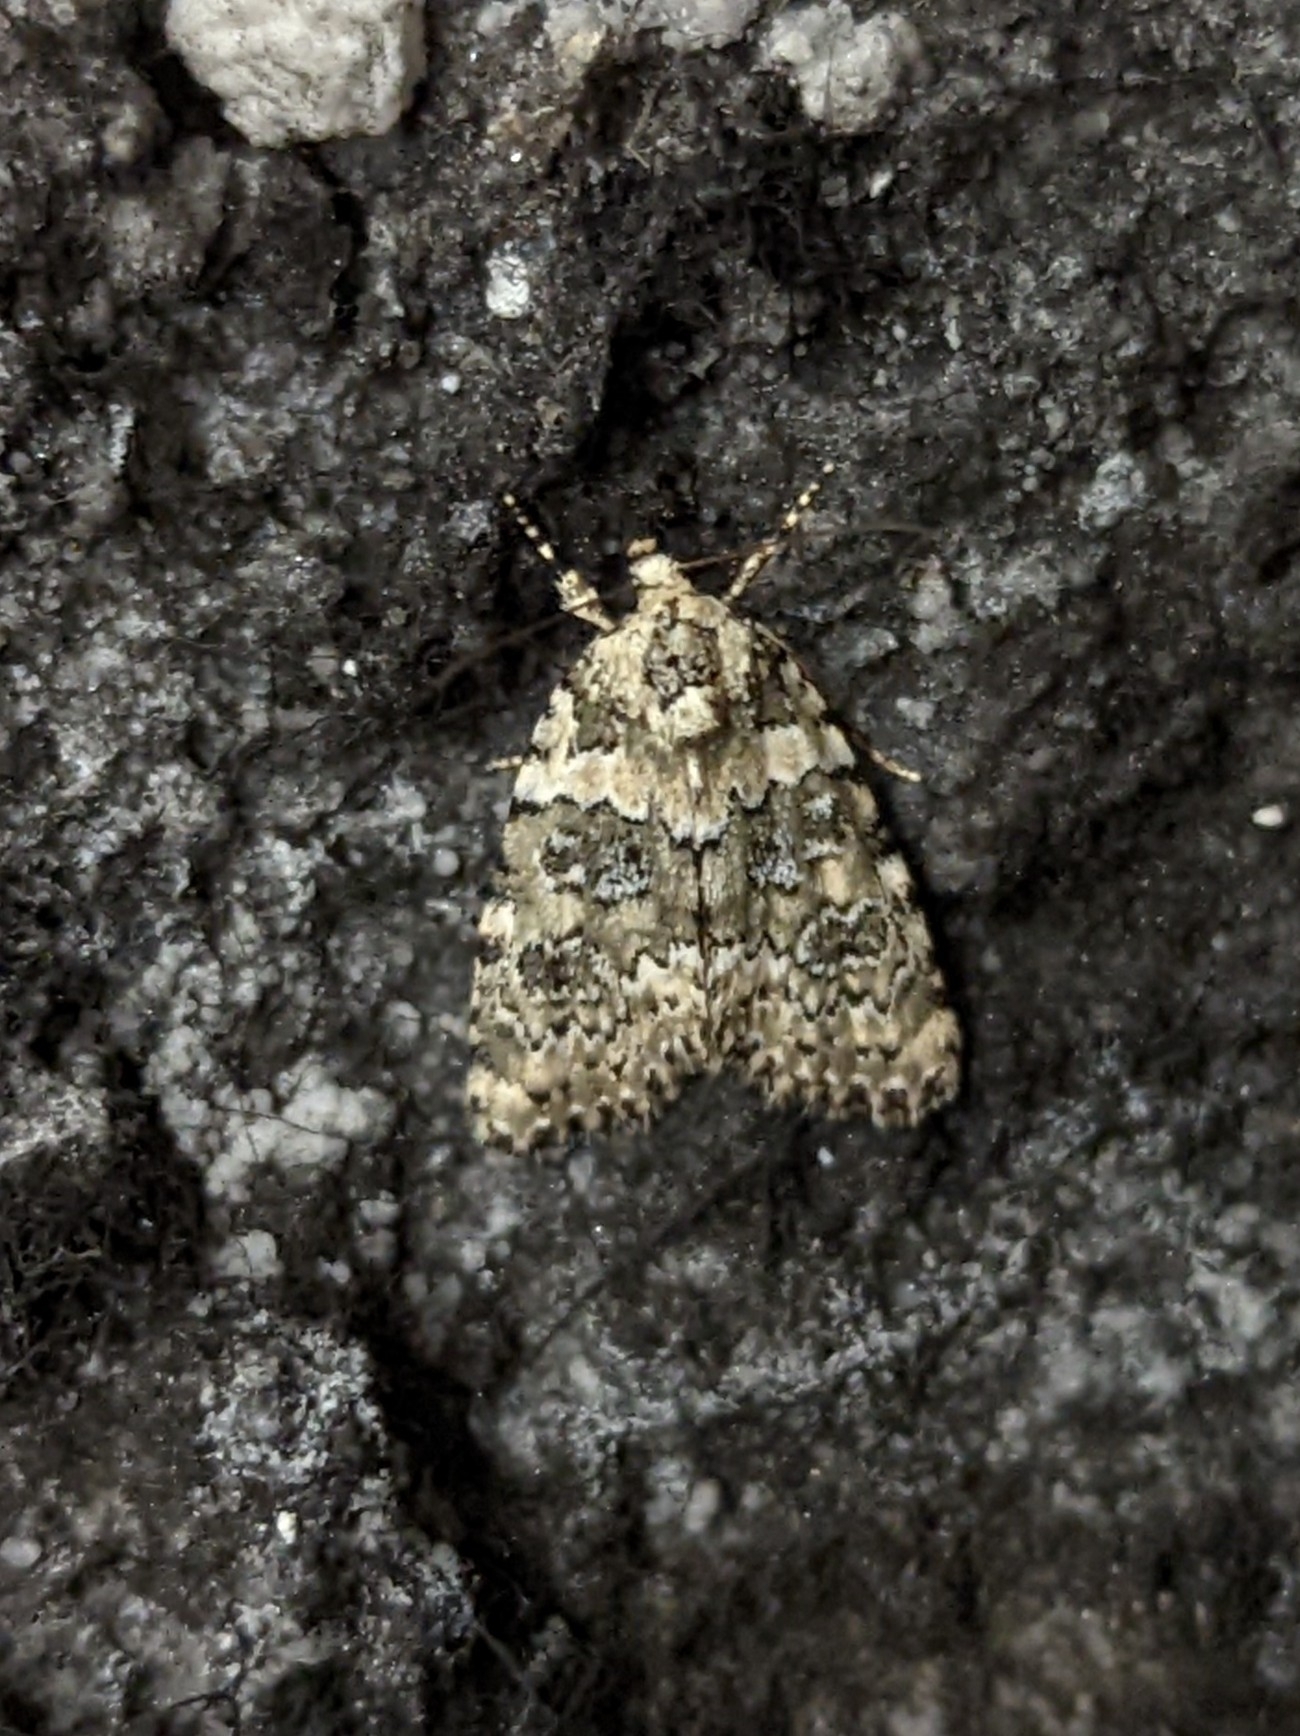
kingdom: Animalia
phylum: Arthropoda
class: Insecta
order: Lepidoptera
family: Noctuidae
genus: Bryophila
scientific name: Bryophila domestica
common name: Marbled beauty
